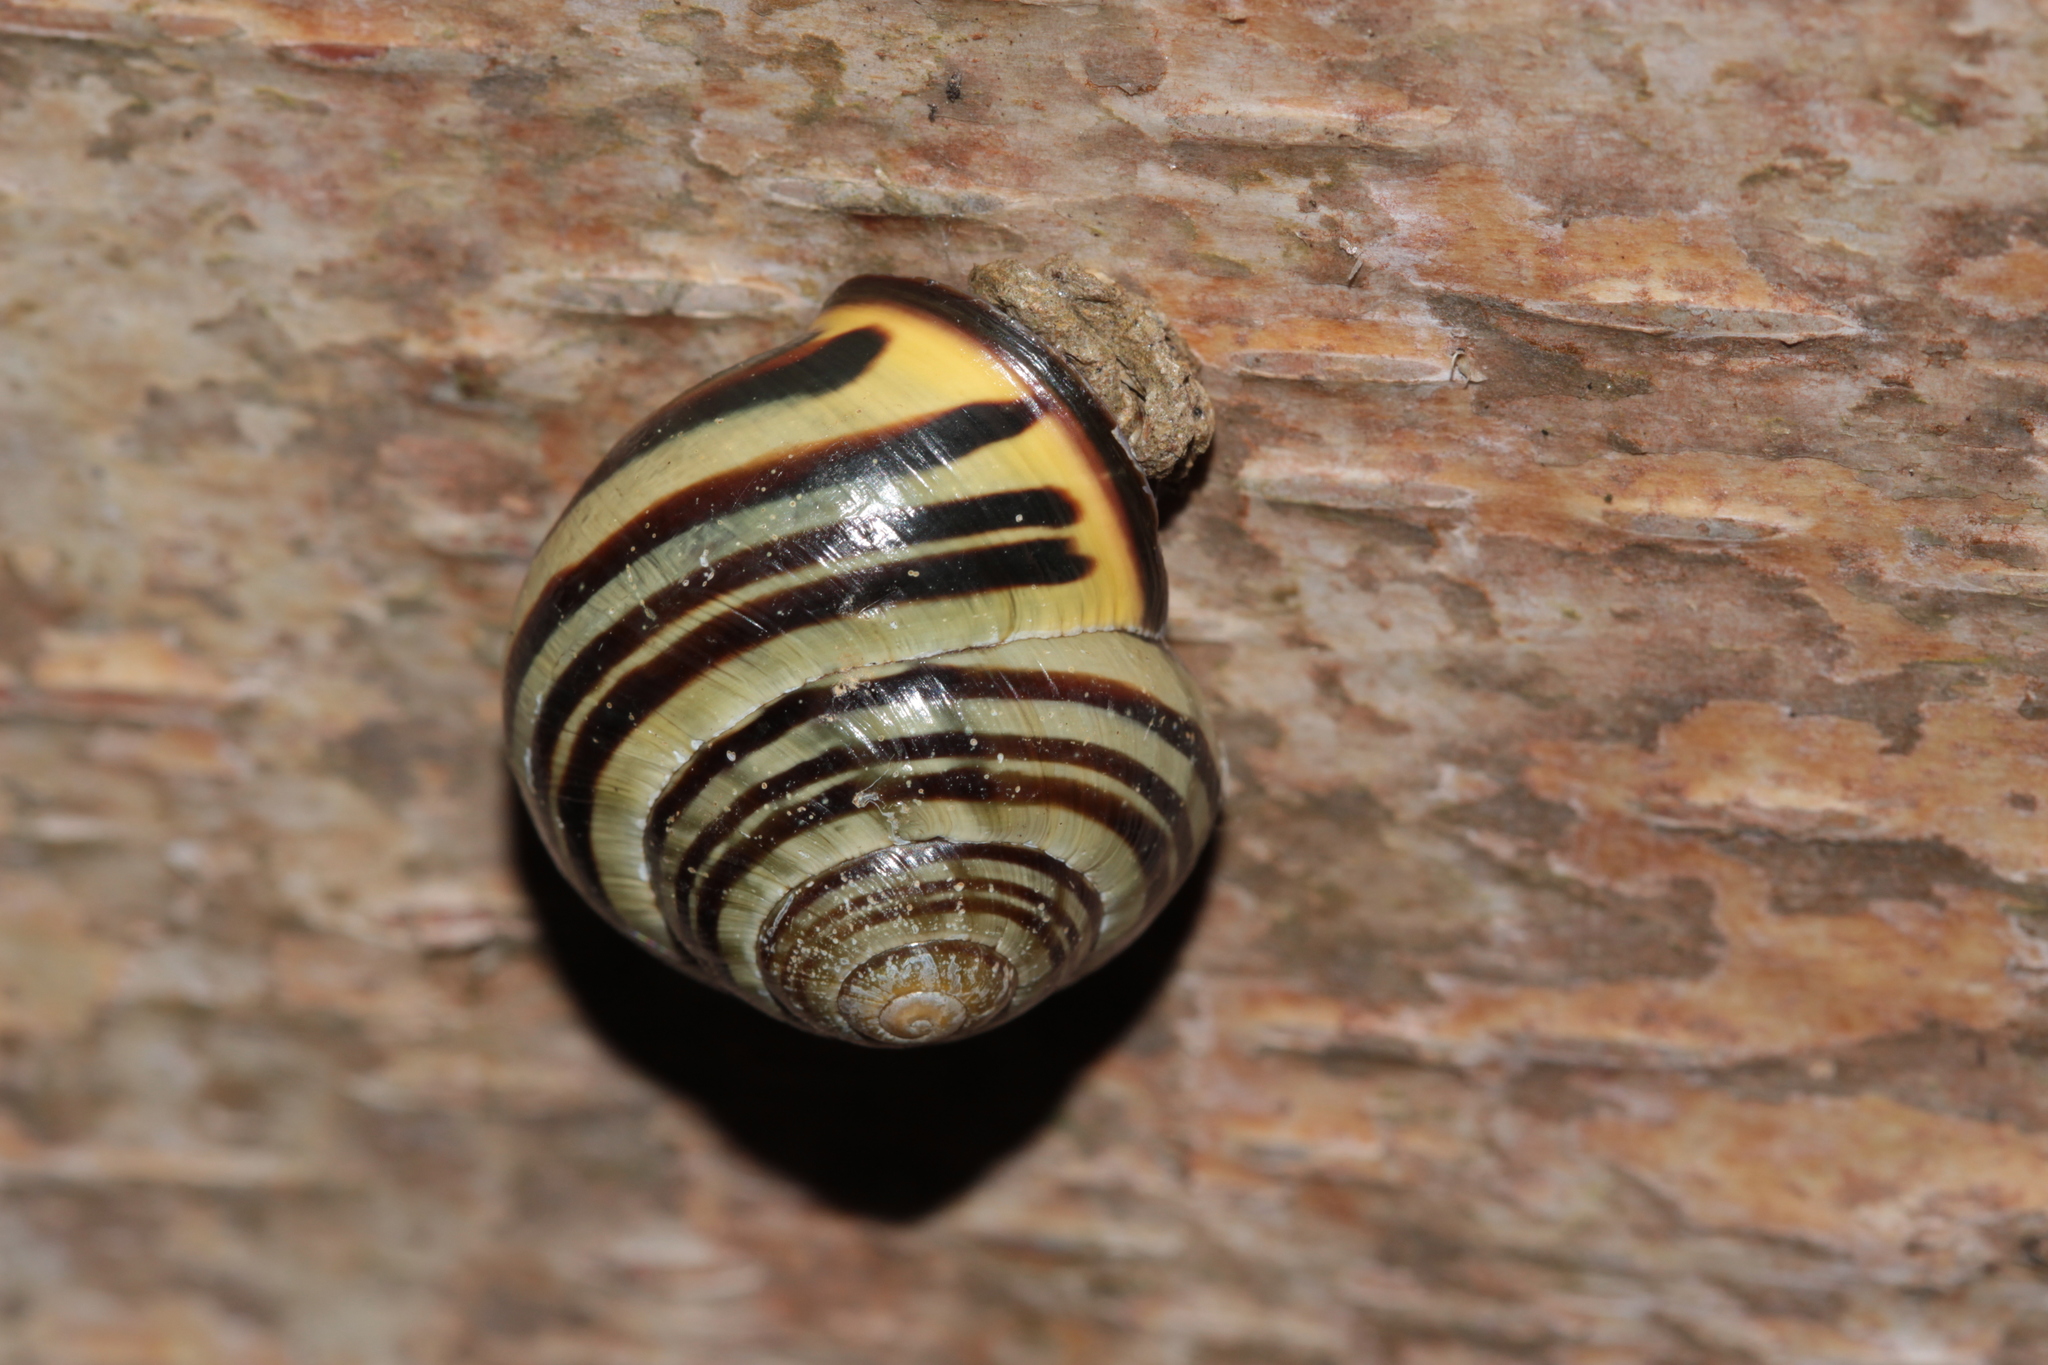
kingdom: Animalia
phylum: Mollusca
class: Gastropoda
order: Stylommatophora
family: Helicidae
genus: Cepaea
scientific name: Cepaea nemoralis
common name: Grovesnail
